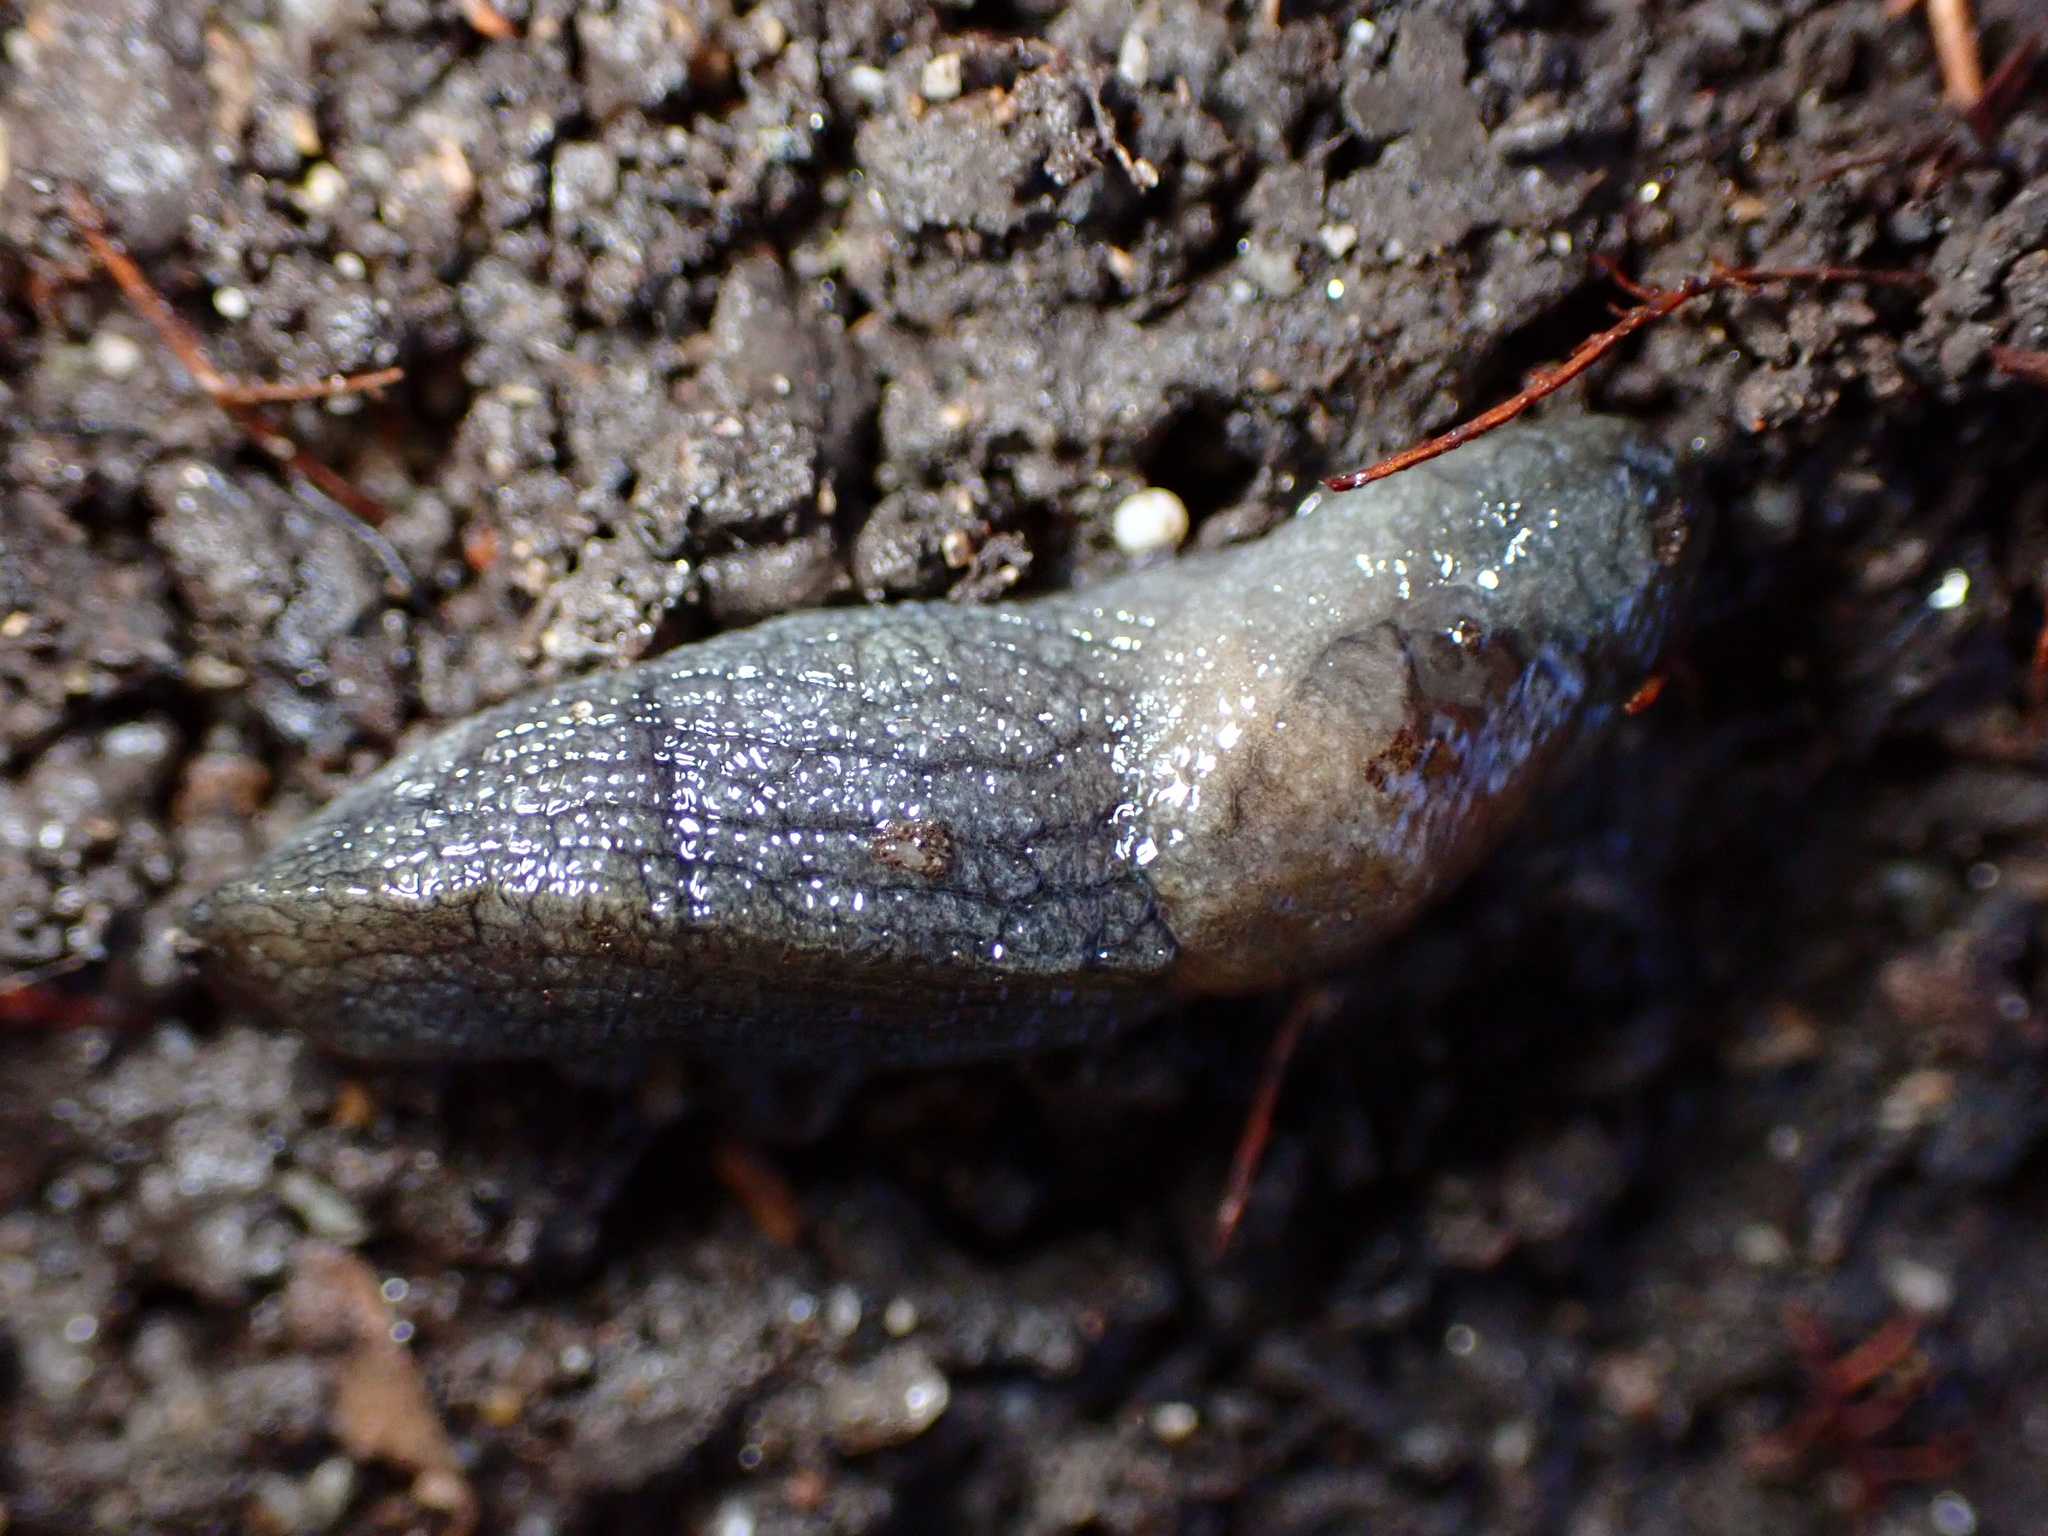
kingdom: Animalia
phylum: Mollusca
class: Gastropoda
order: Stylommatophora
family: Milacidae
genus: Milax
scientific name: Milax gagates
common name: Greenhouse slug
